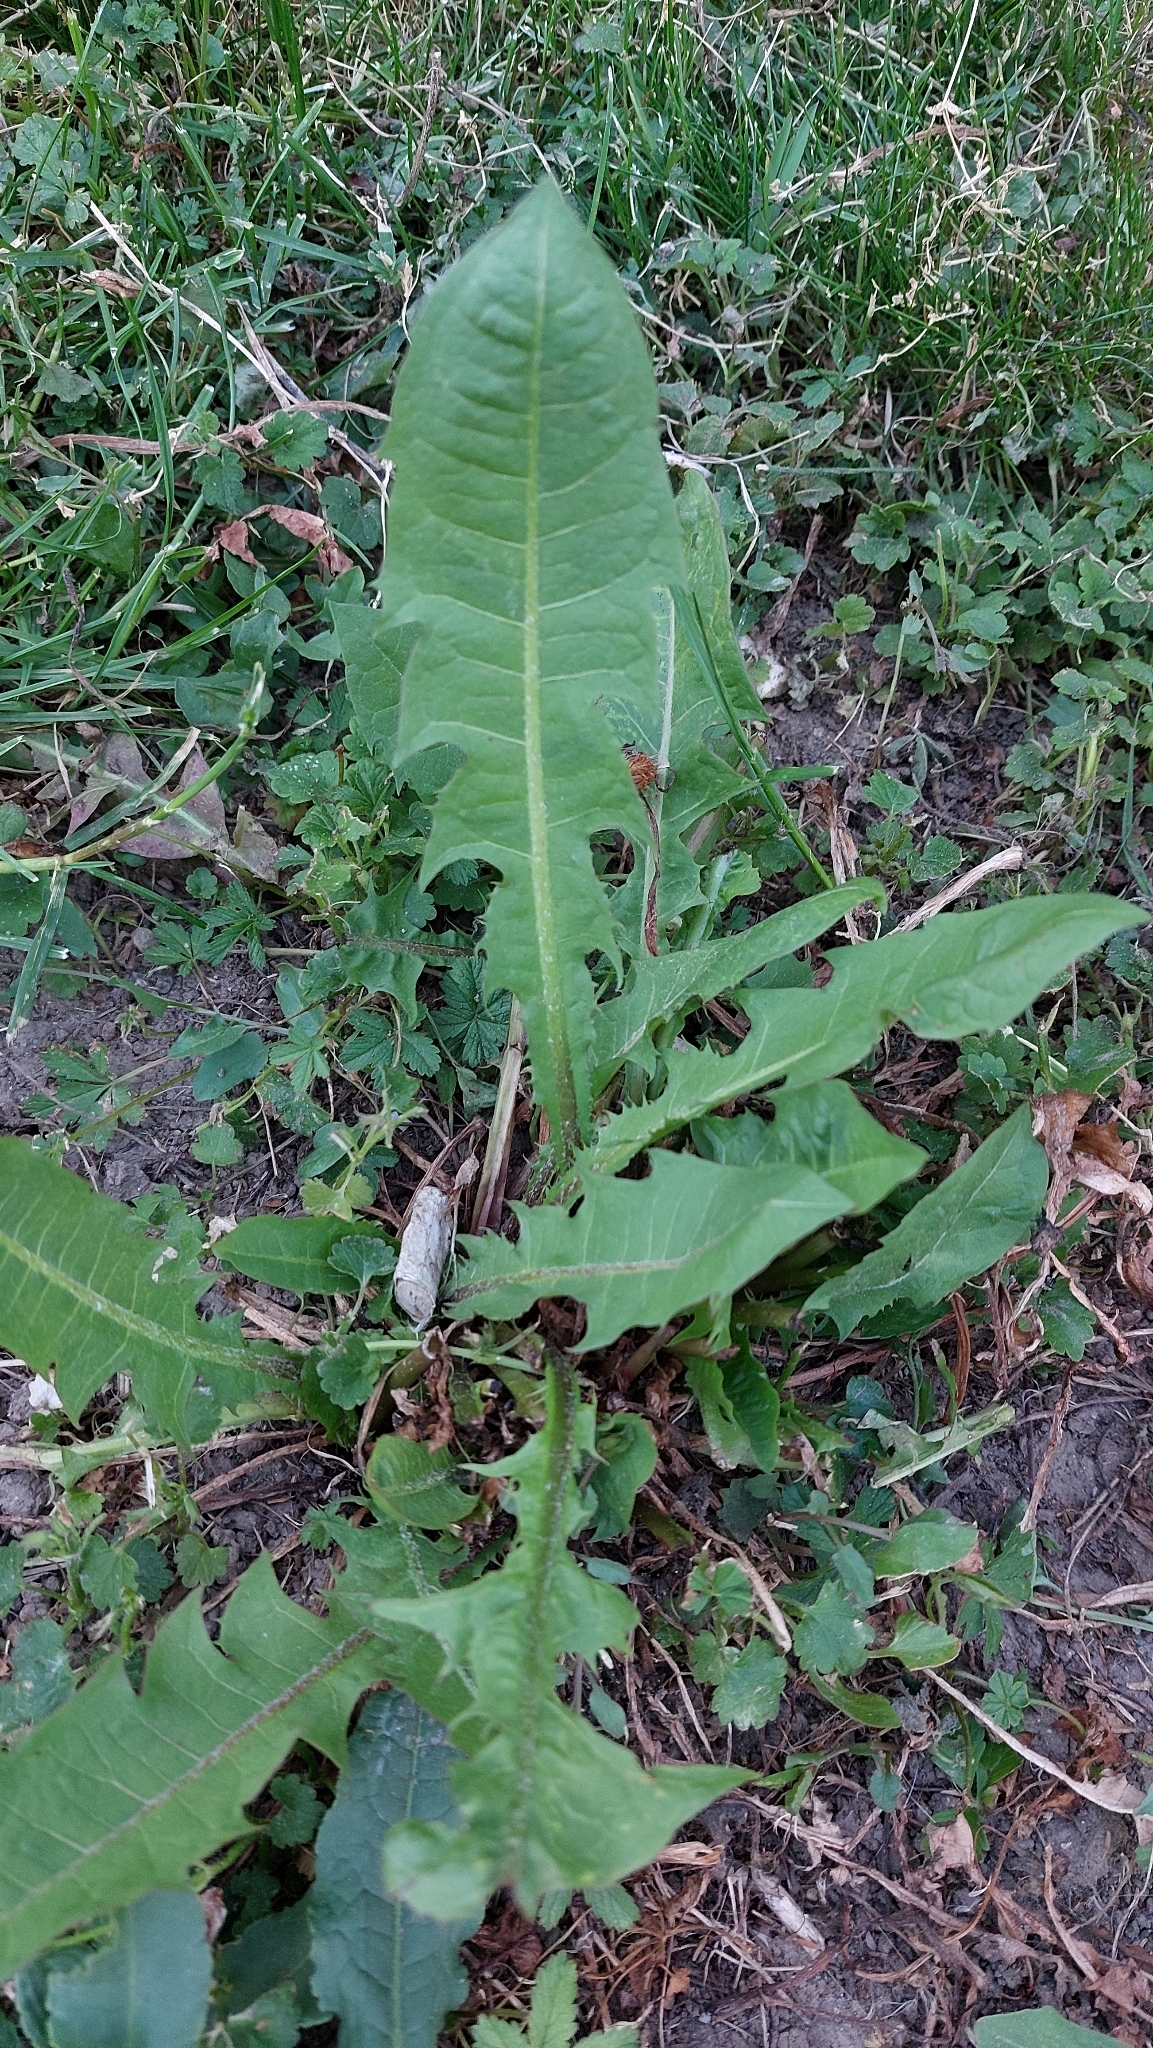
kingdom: Plantae
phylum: Tracheophyta
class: Magnoliopsida
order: Asterales
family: Asteraceae
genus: Taraxacum
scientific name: Taraxacum
